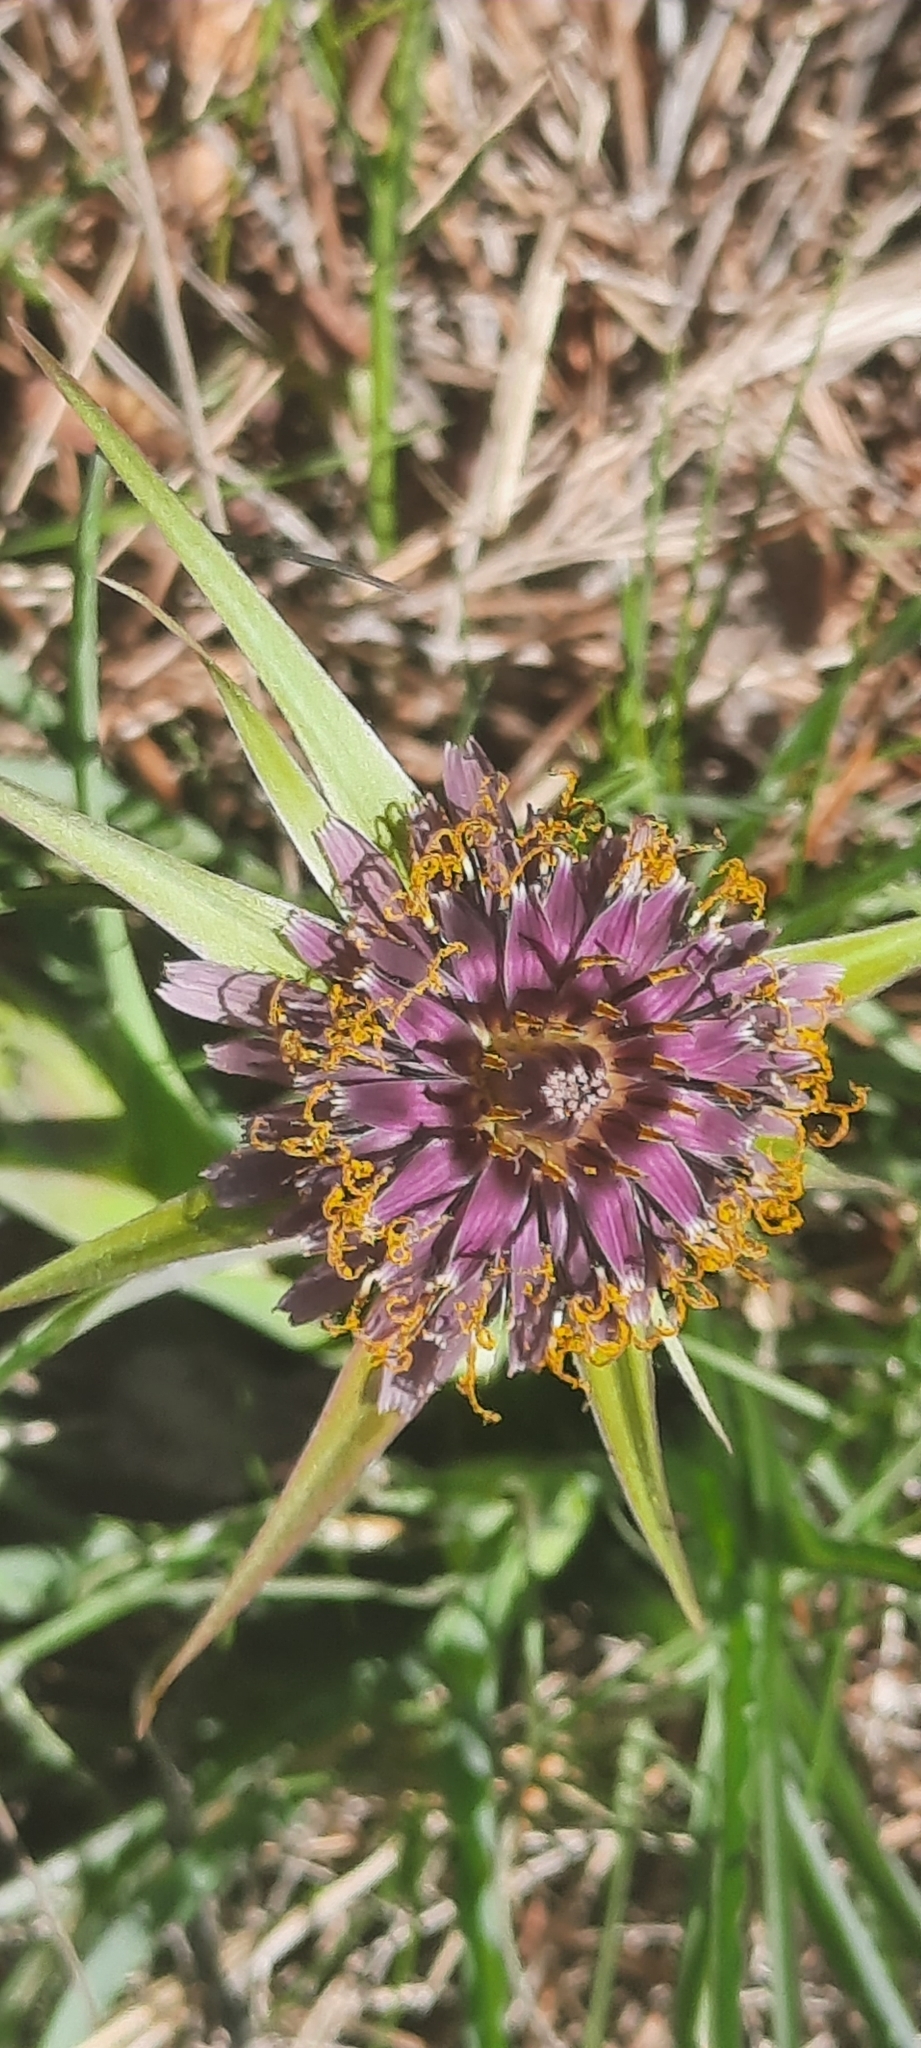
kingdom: Plantae
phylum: Tracheophyta
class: Magnoliopsida
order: Asterales
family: Asteraceae
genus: Tragopogon
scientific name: Tragopogon porrifolius
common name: Salsify
